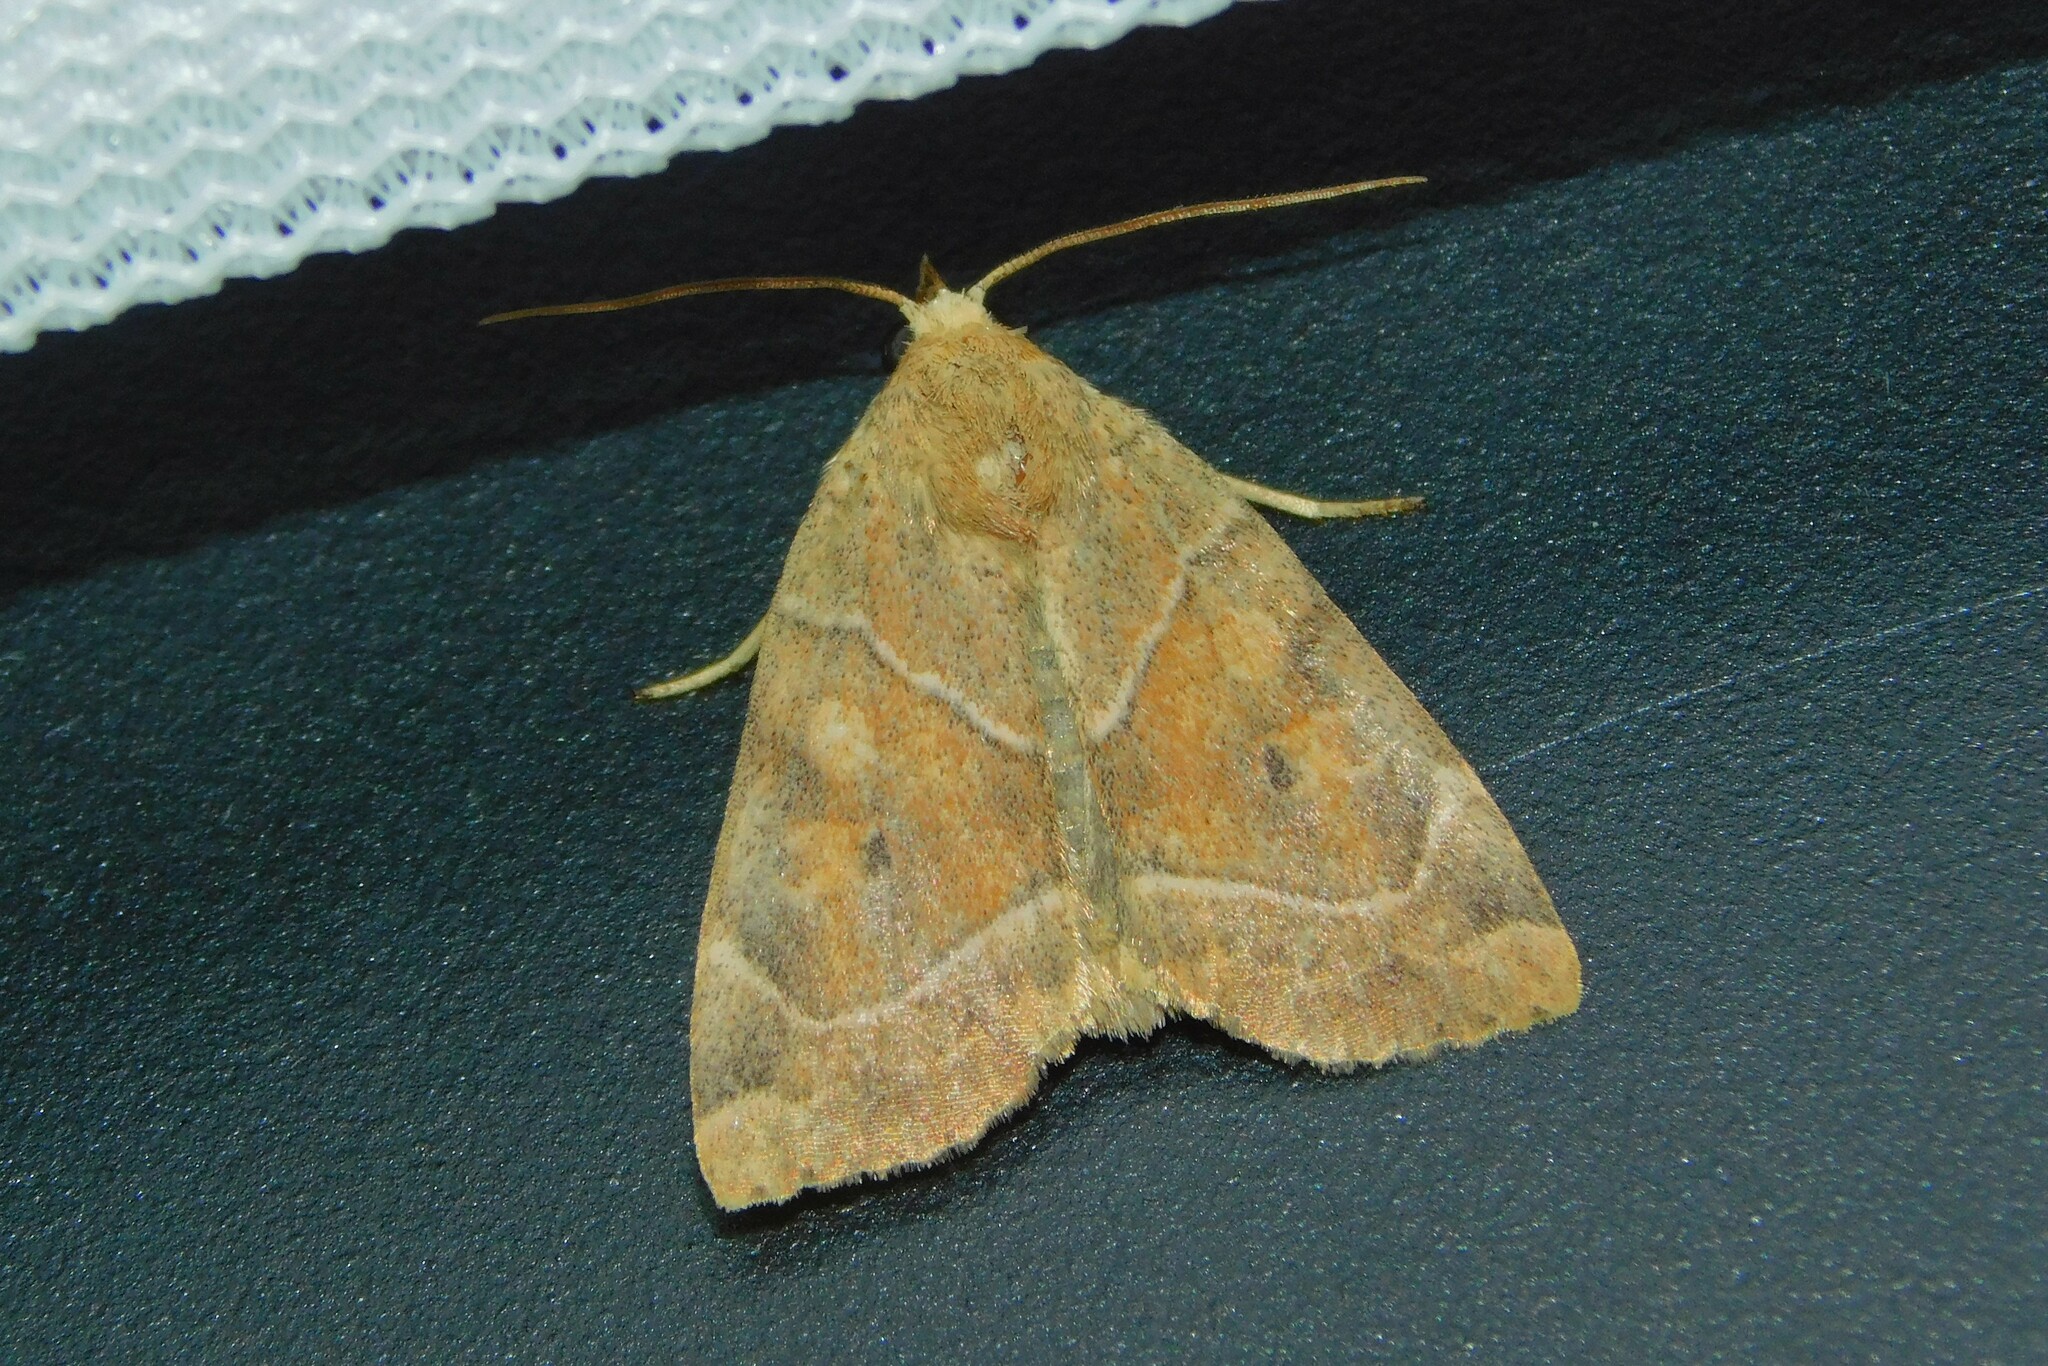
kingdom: Animalia
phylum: Arthropoda
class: Insecta
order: Lepidoptera
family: Noctuidae
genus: Cosmia
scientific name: Cosmia trapezina
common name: Dun-bar
